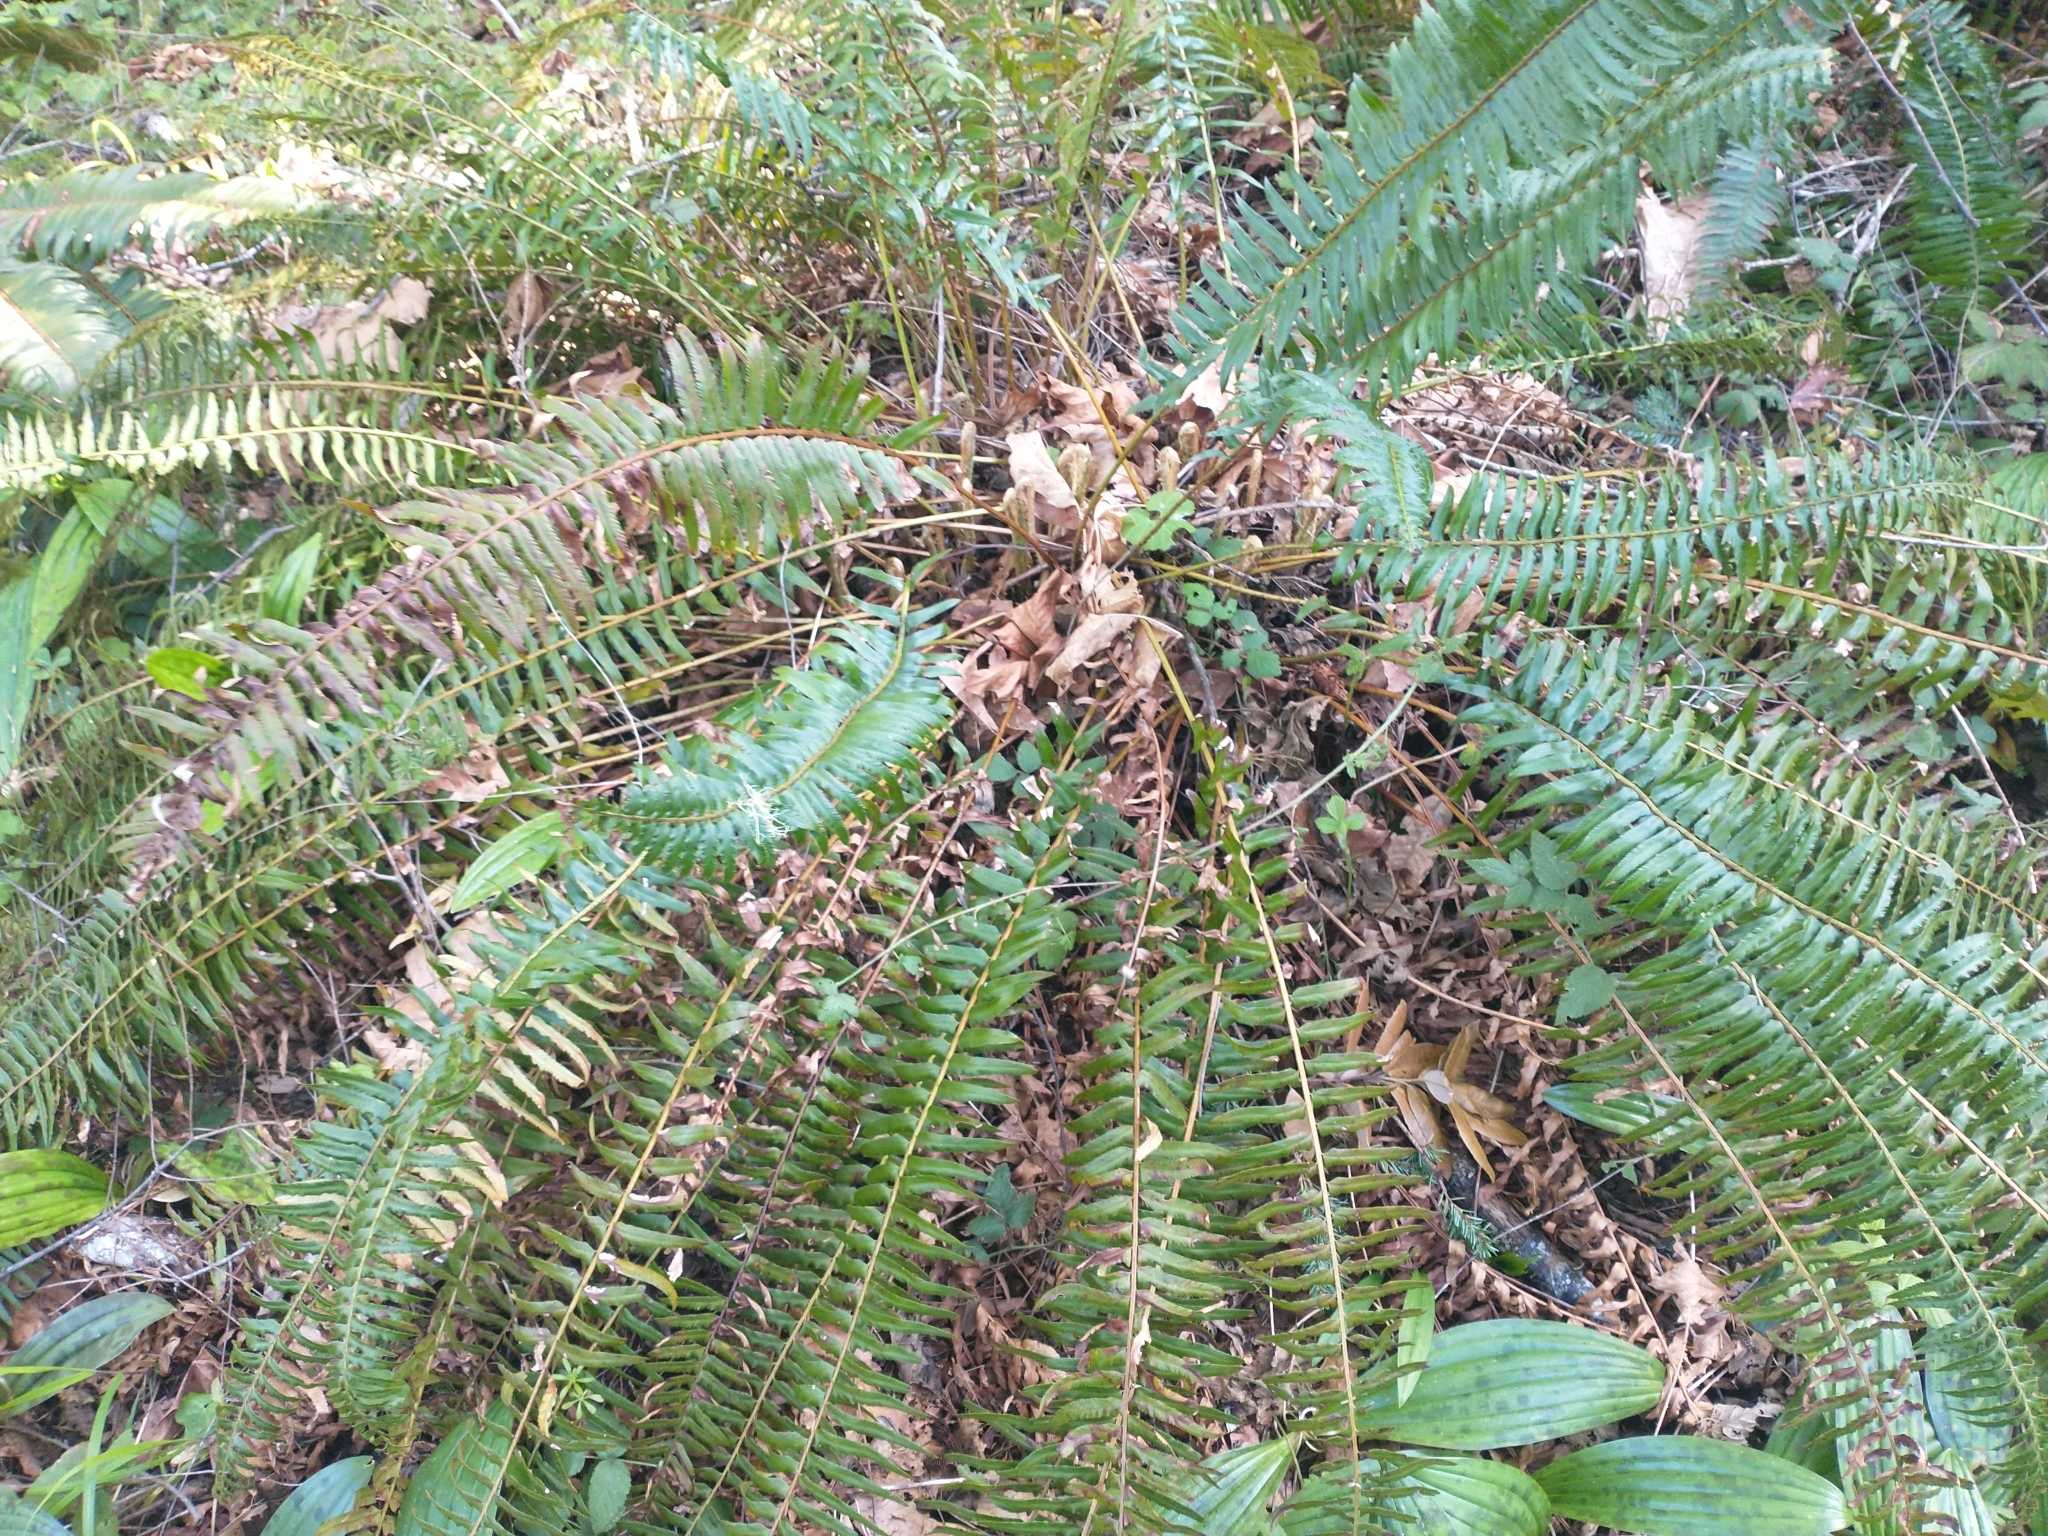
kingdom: Plantae
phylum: Tracheophyta
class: Polypodiopsida
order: Polypodiales
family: Dryopteridaceae
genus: Polystichum
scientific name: Polystichum munitum
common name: Western sword-fern
